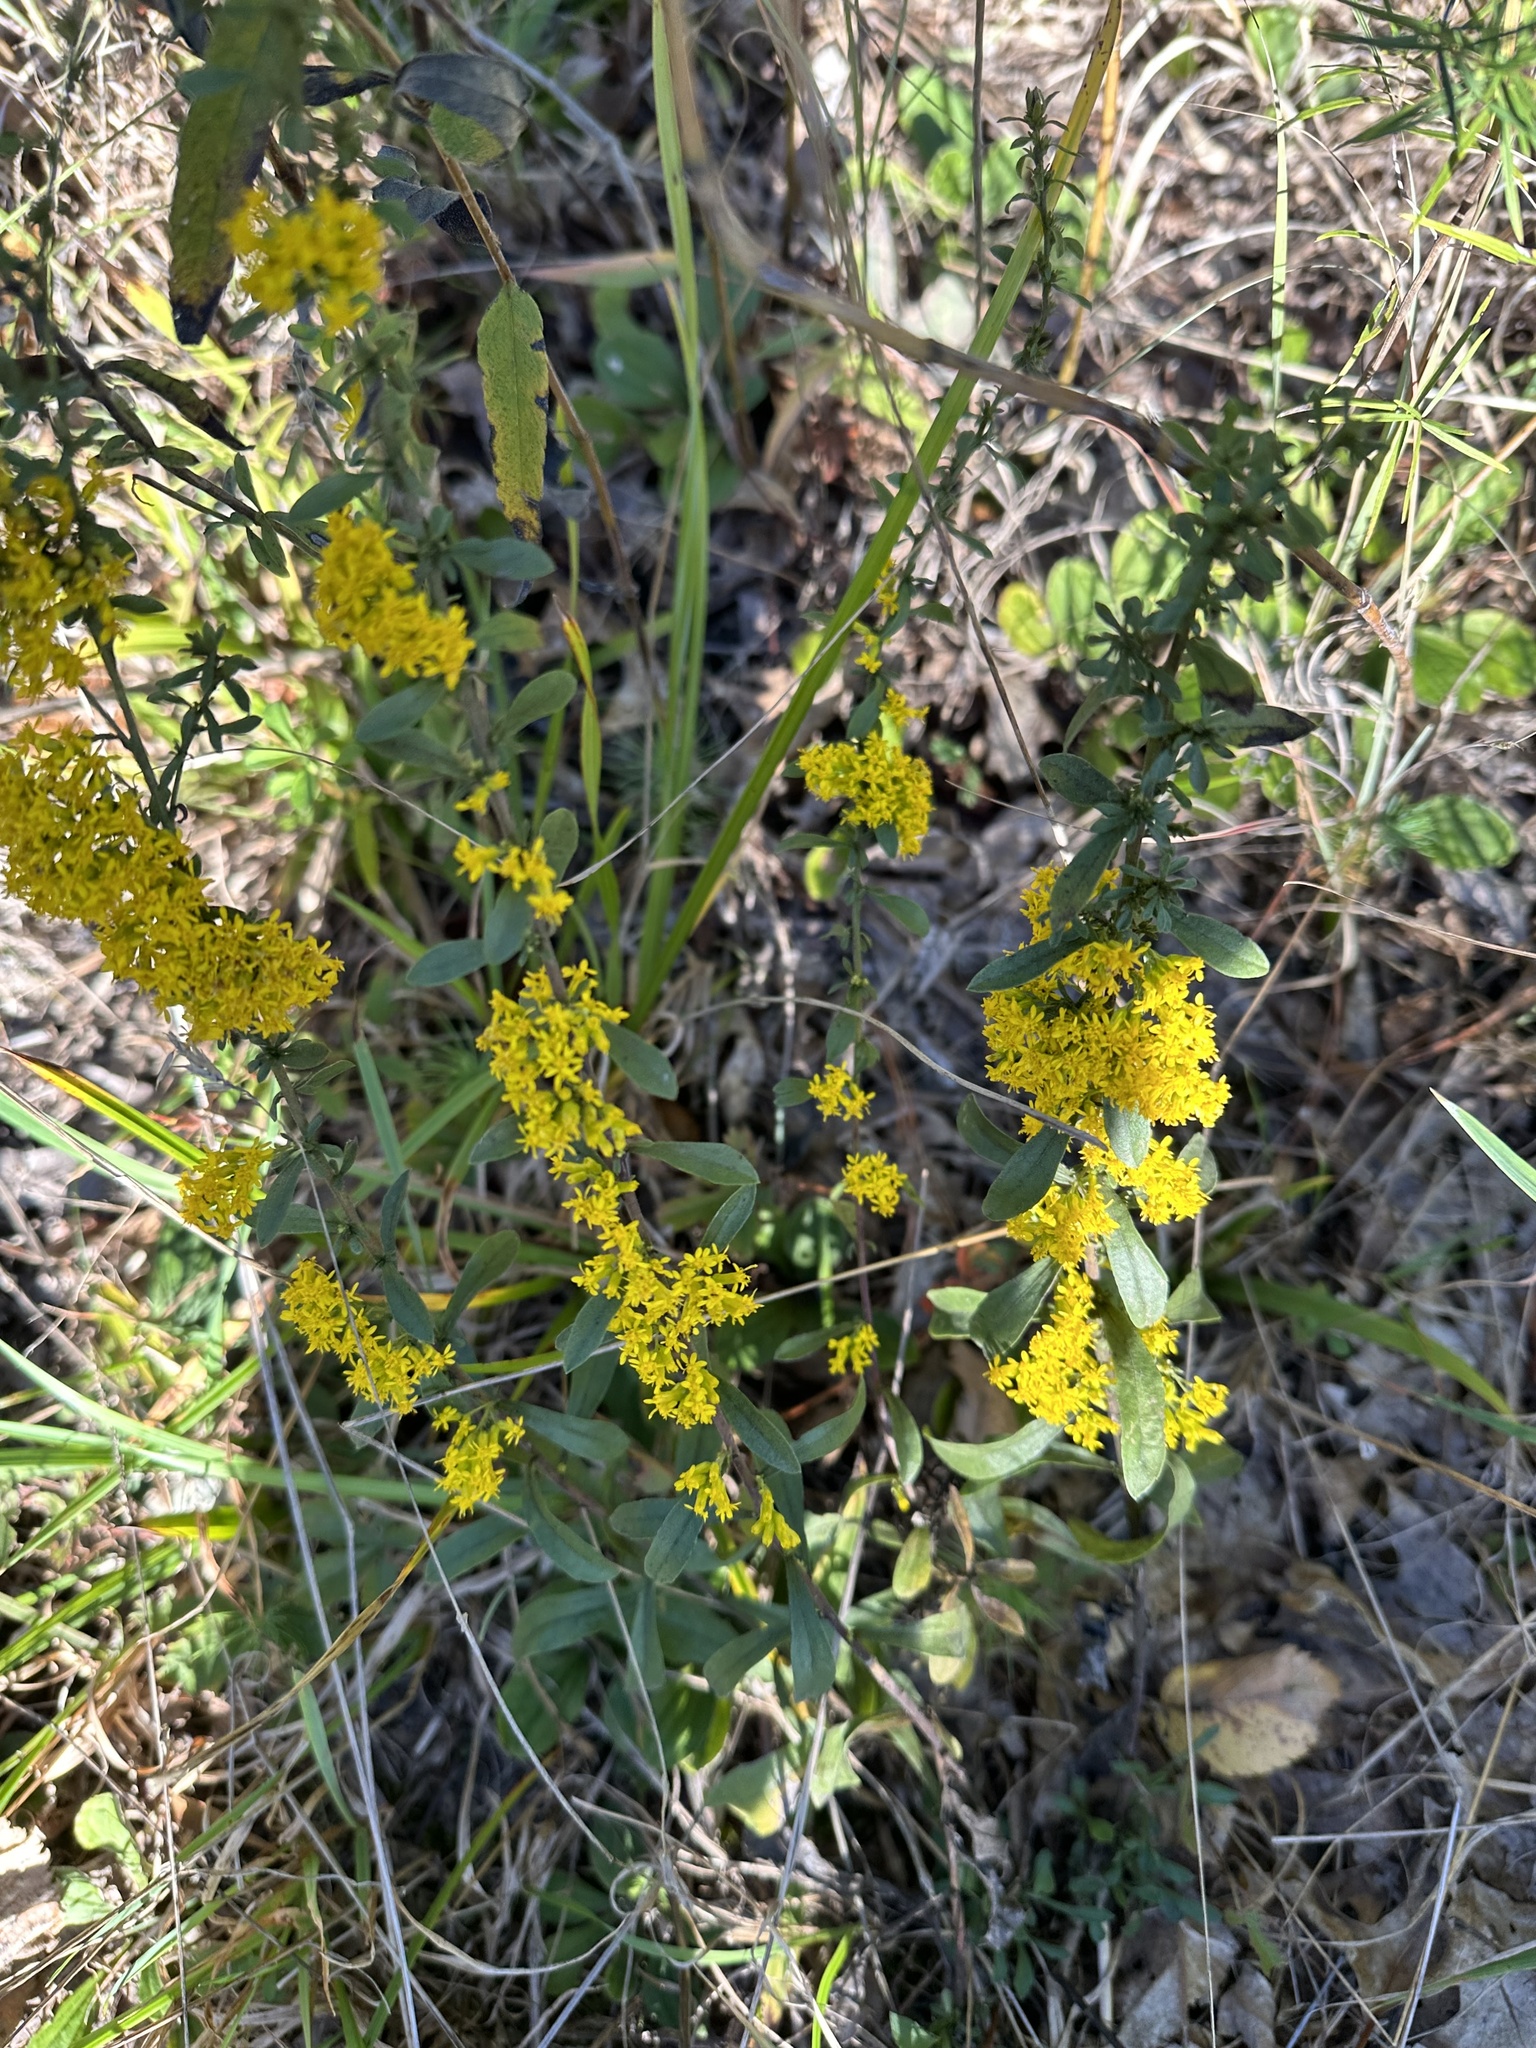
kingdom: Plantae
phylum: Tracheophyta
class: Magnoliopsida
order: Asterales
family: Asteraceae
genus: Solidago
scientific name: Solidago nemoralis
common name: Grey goldenrod
